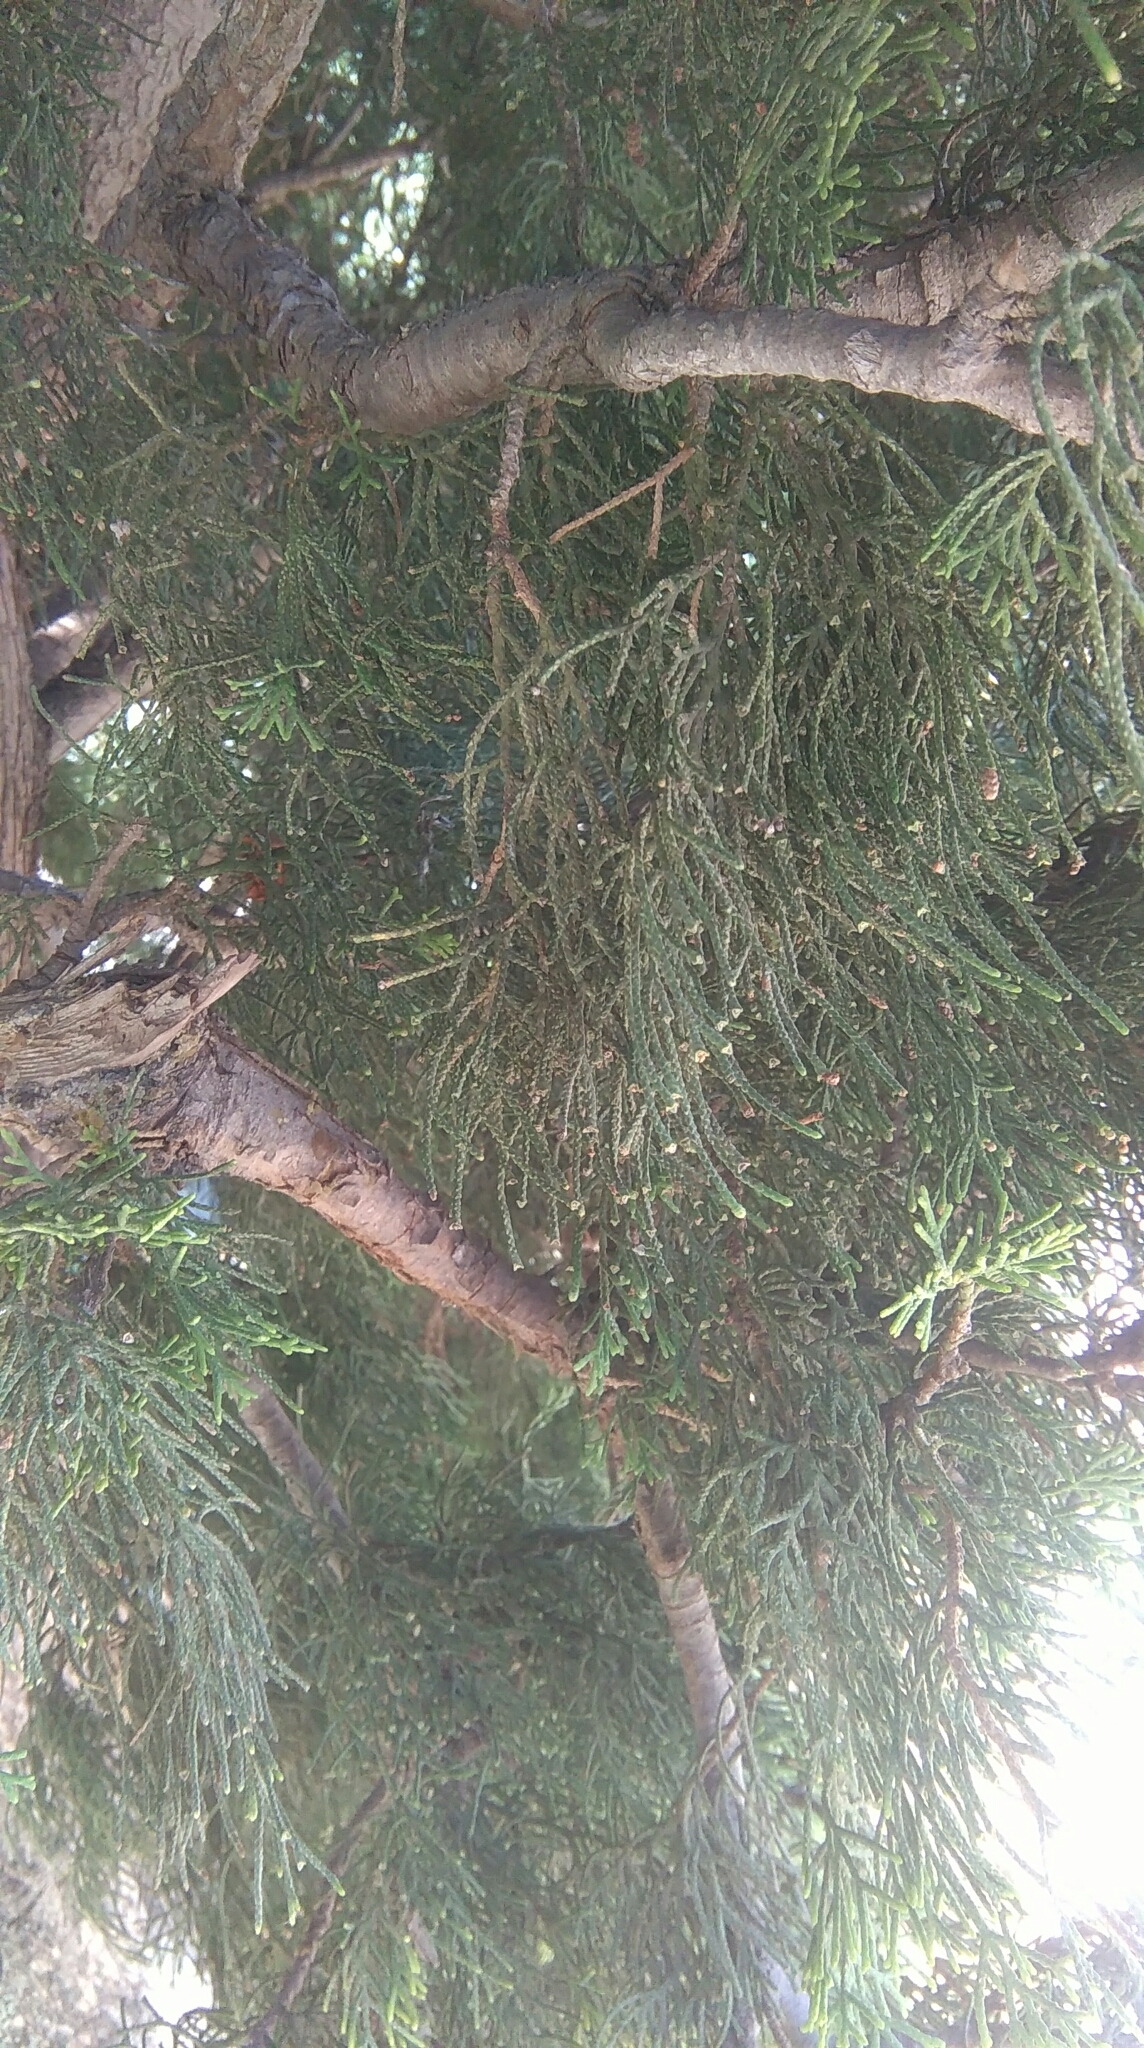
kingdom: Plantae
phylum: Tracheophyta
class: Pinopsida
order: Pinales
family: Cupressaceae
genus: Cupressus
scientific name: Cupressus sempervirens
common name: Italian cypress
